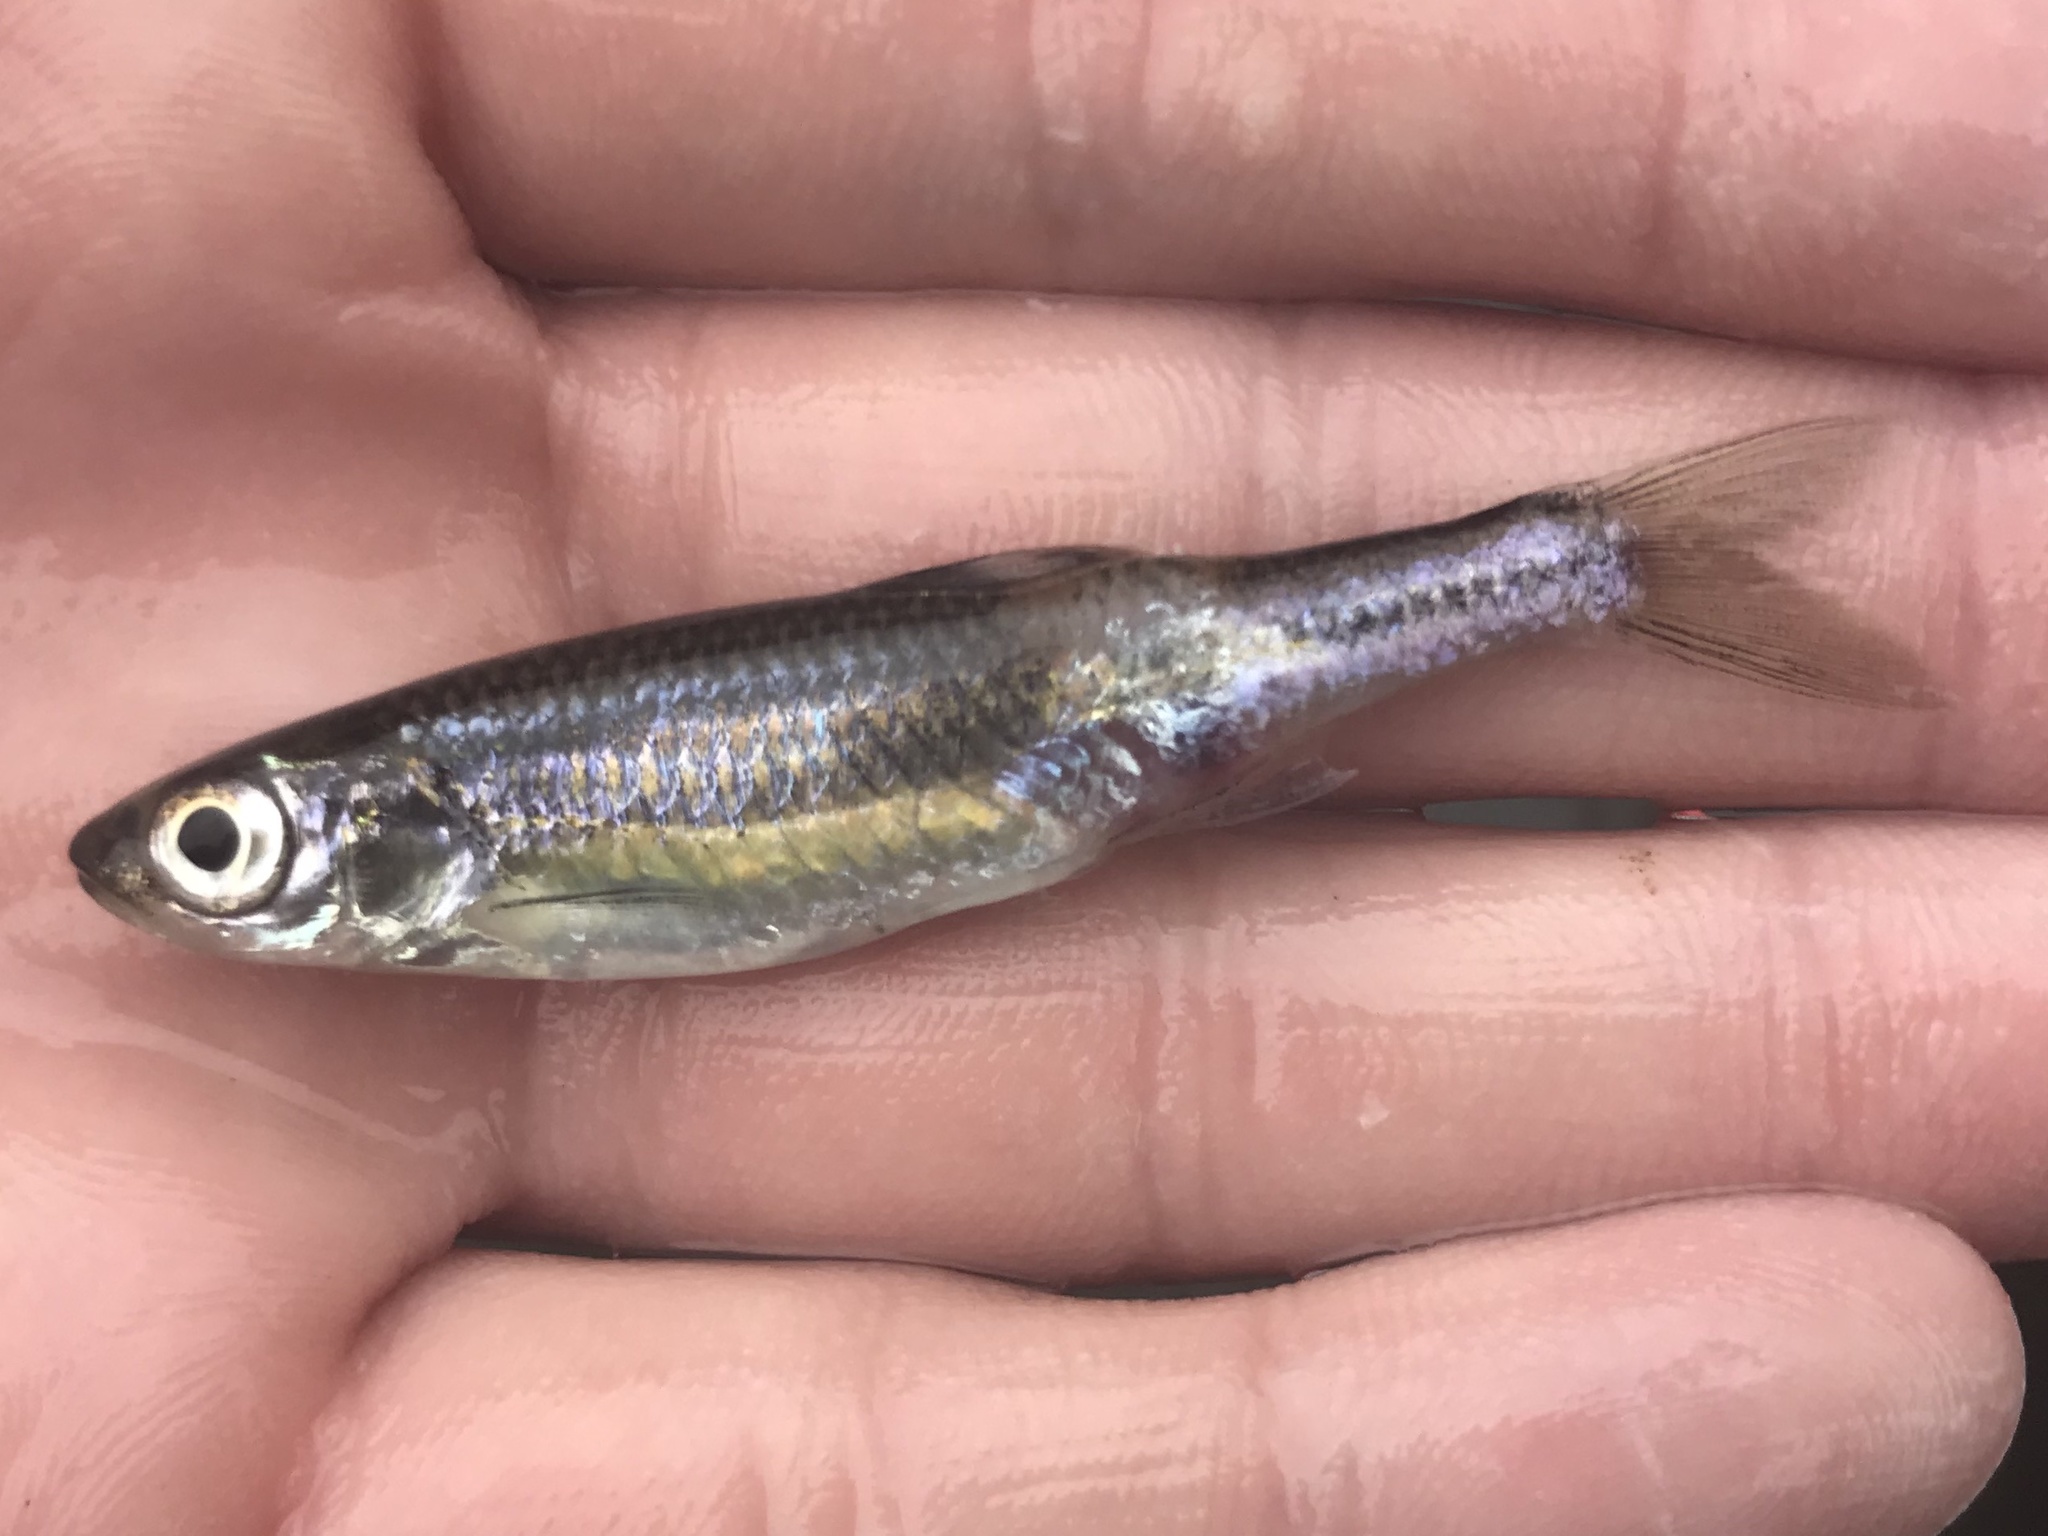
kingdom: Animalia
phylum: Chordata
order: Cypriniformes
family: Cyprinidae
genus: Notropis
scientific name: Notropis amabilis
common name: Texas shiner
